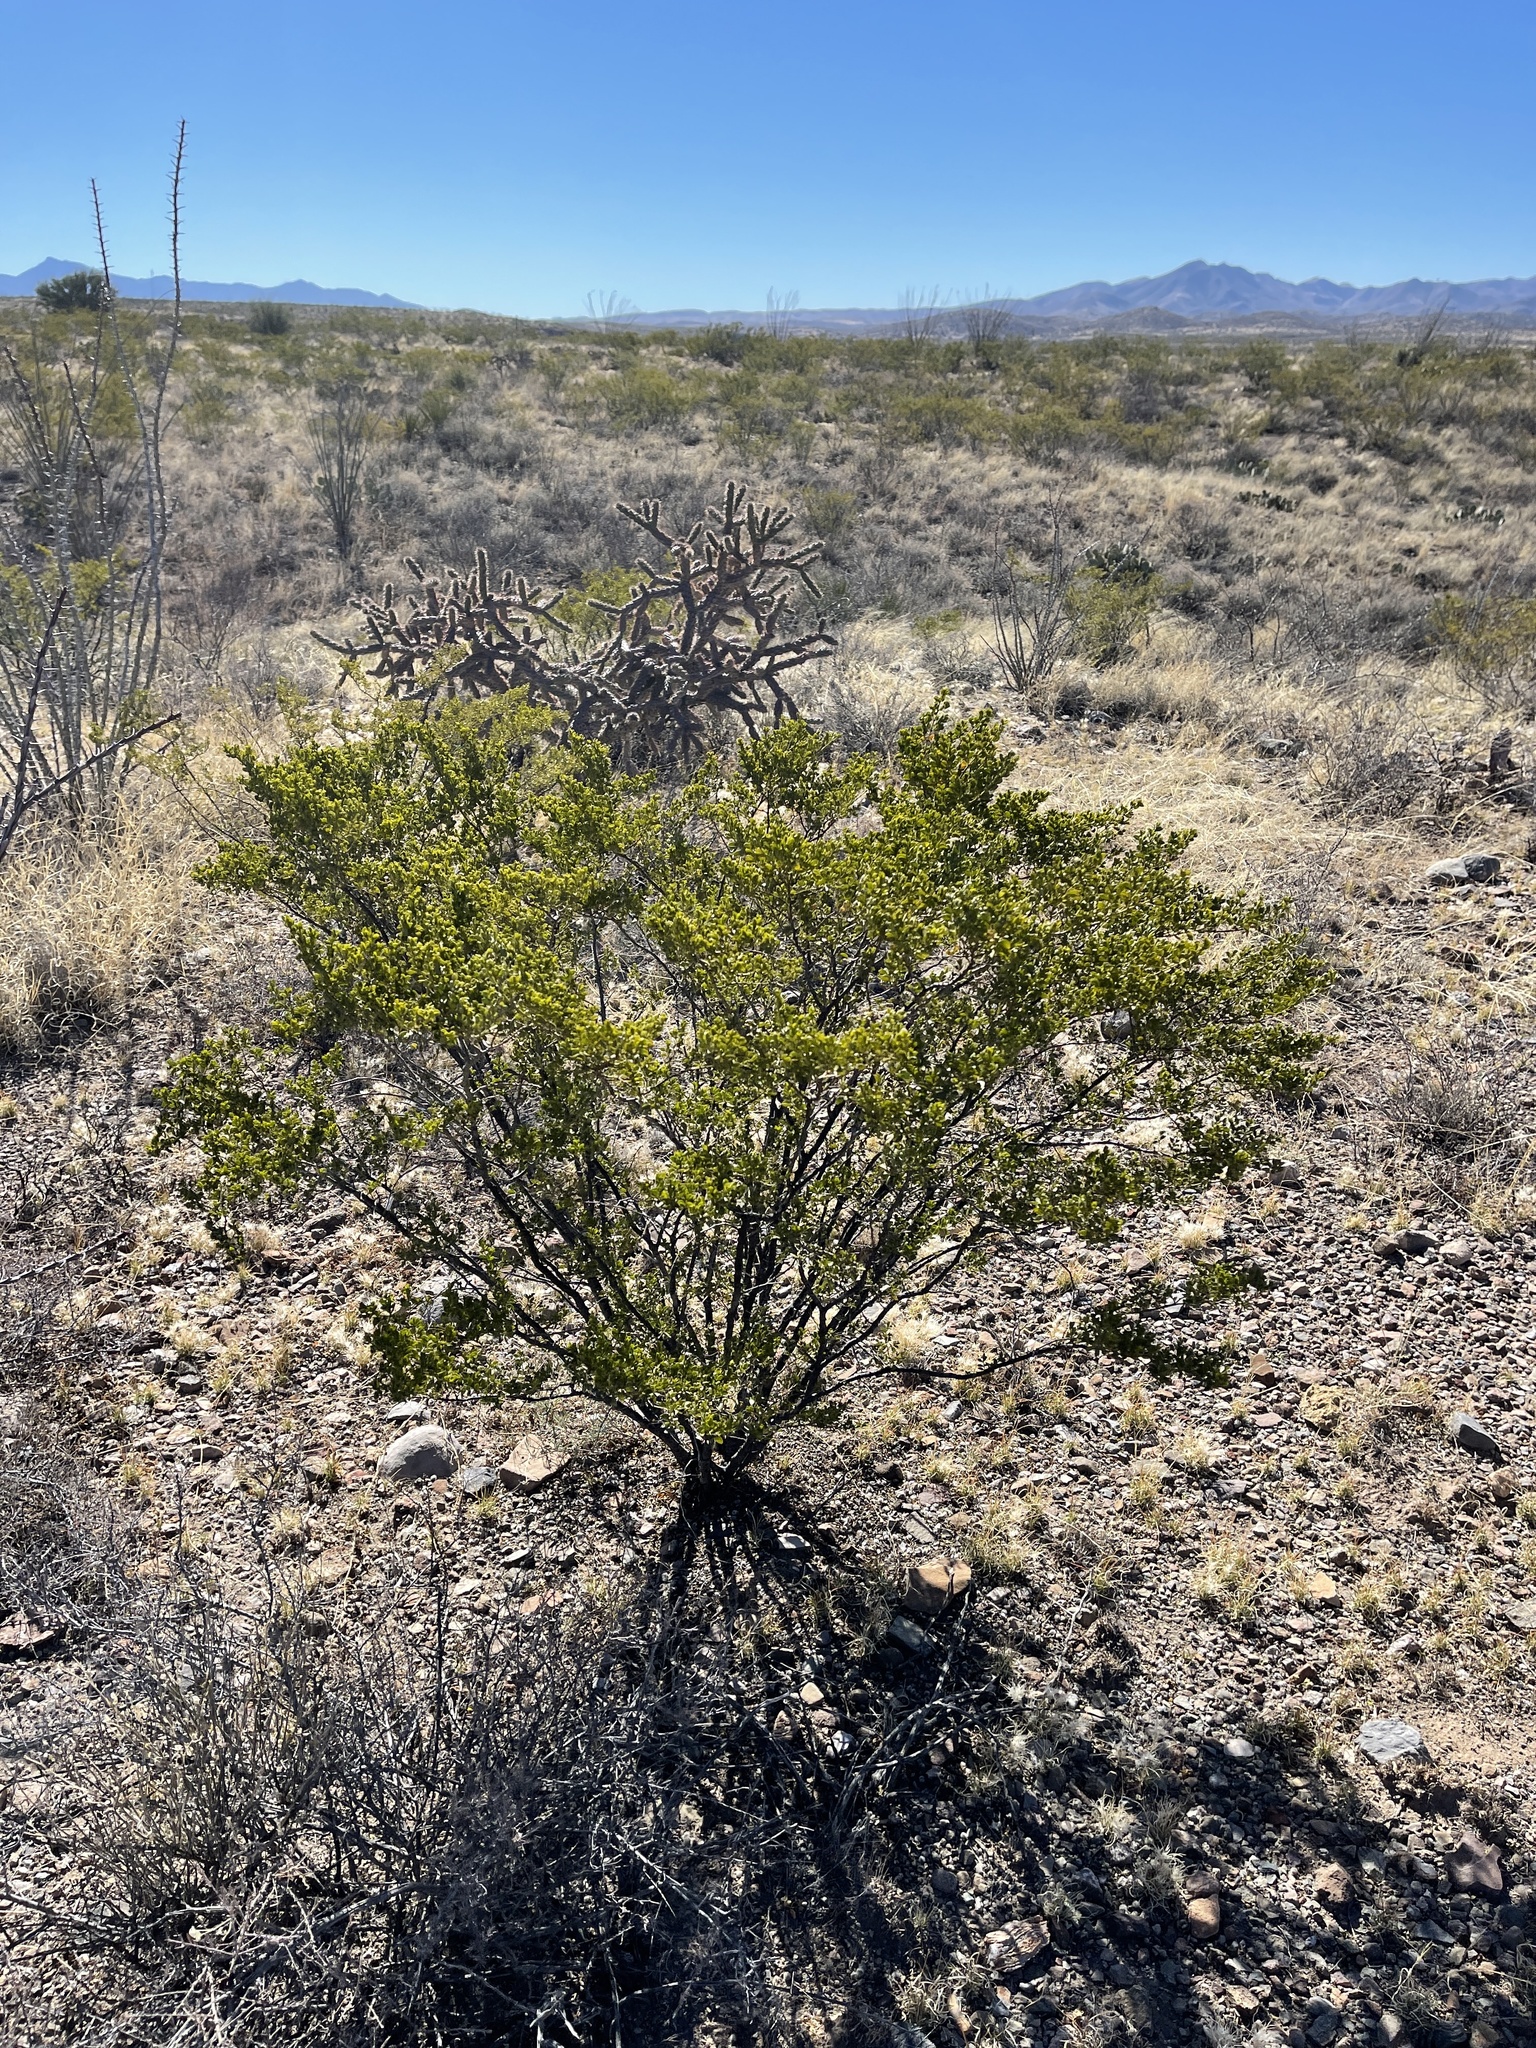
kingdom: Plantae
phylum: Tracheophyta
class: Magnoliopsida
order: Zygophyllales
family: Zygophyllaceae
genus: Larrea
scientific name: Larrea tridentata
